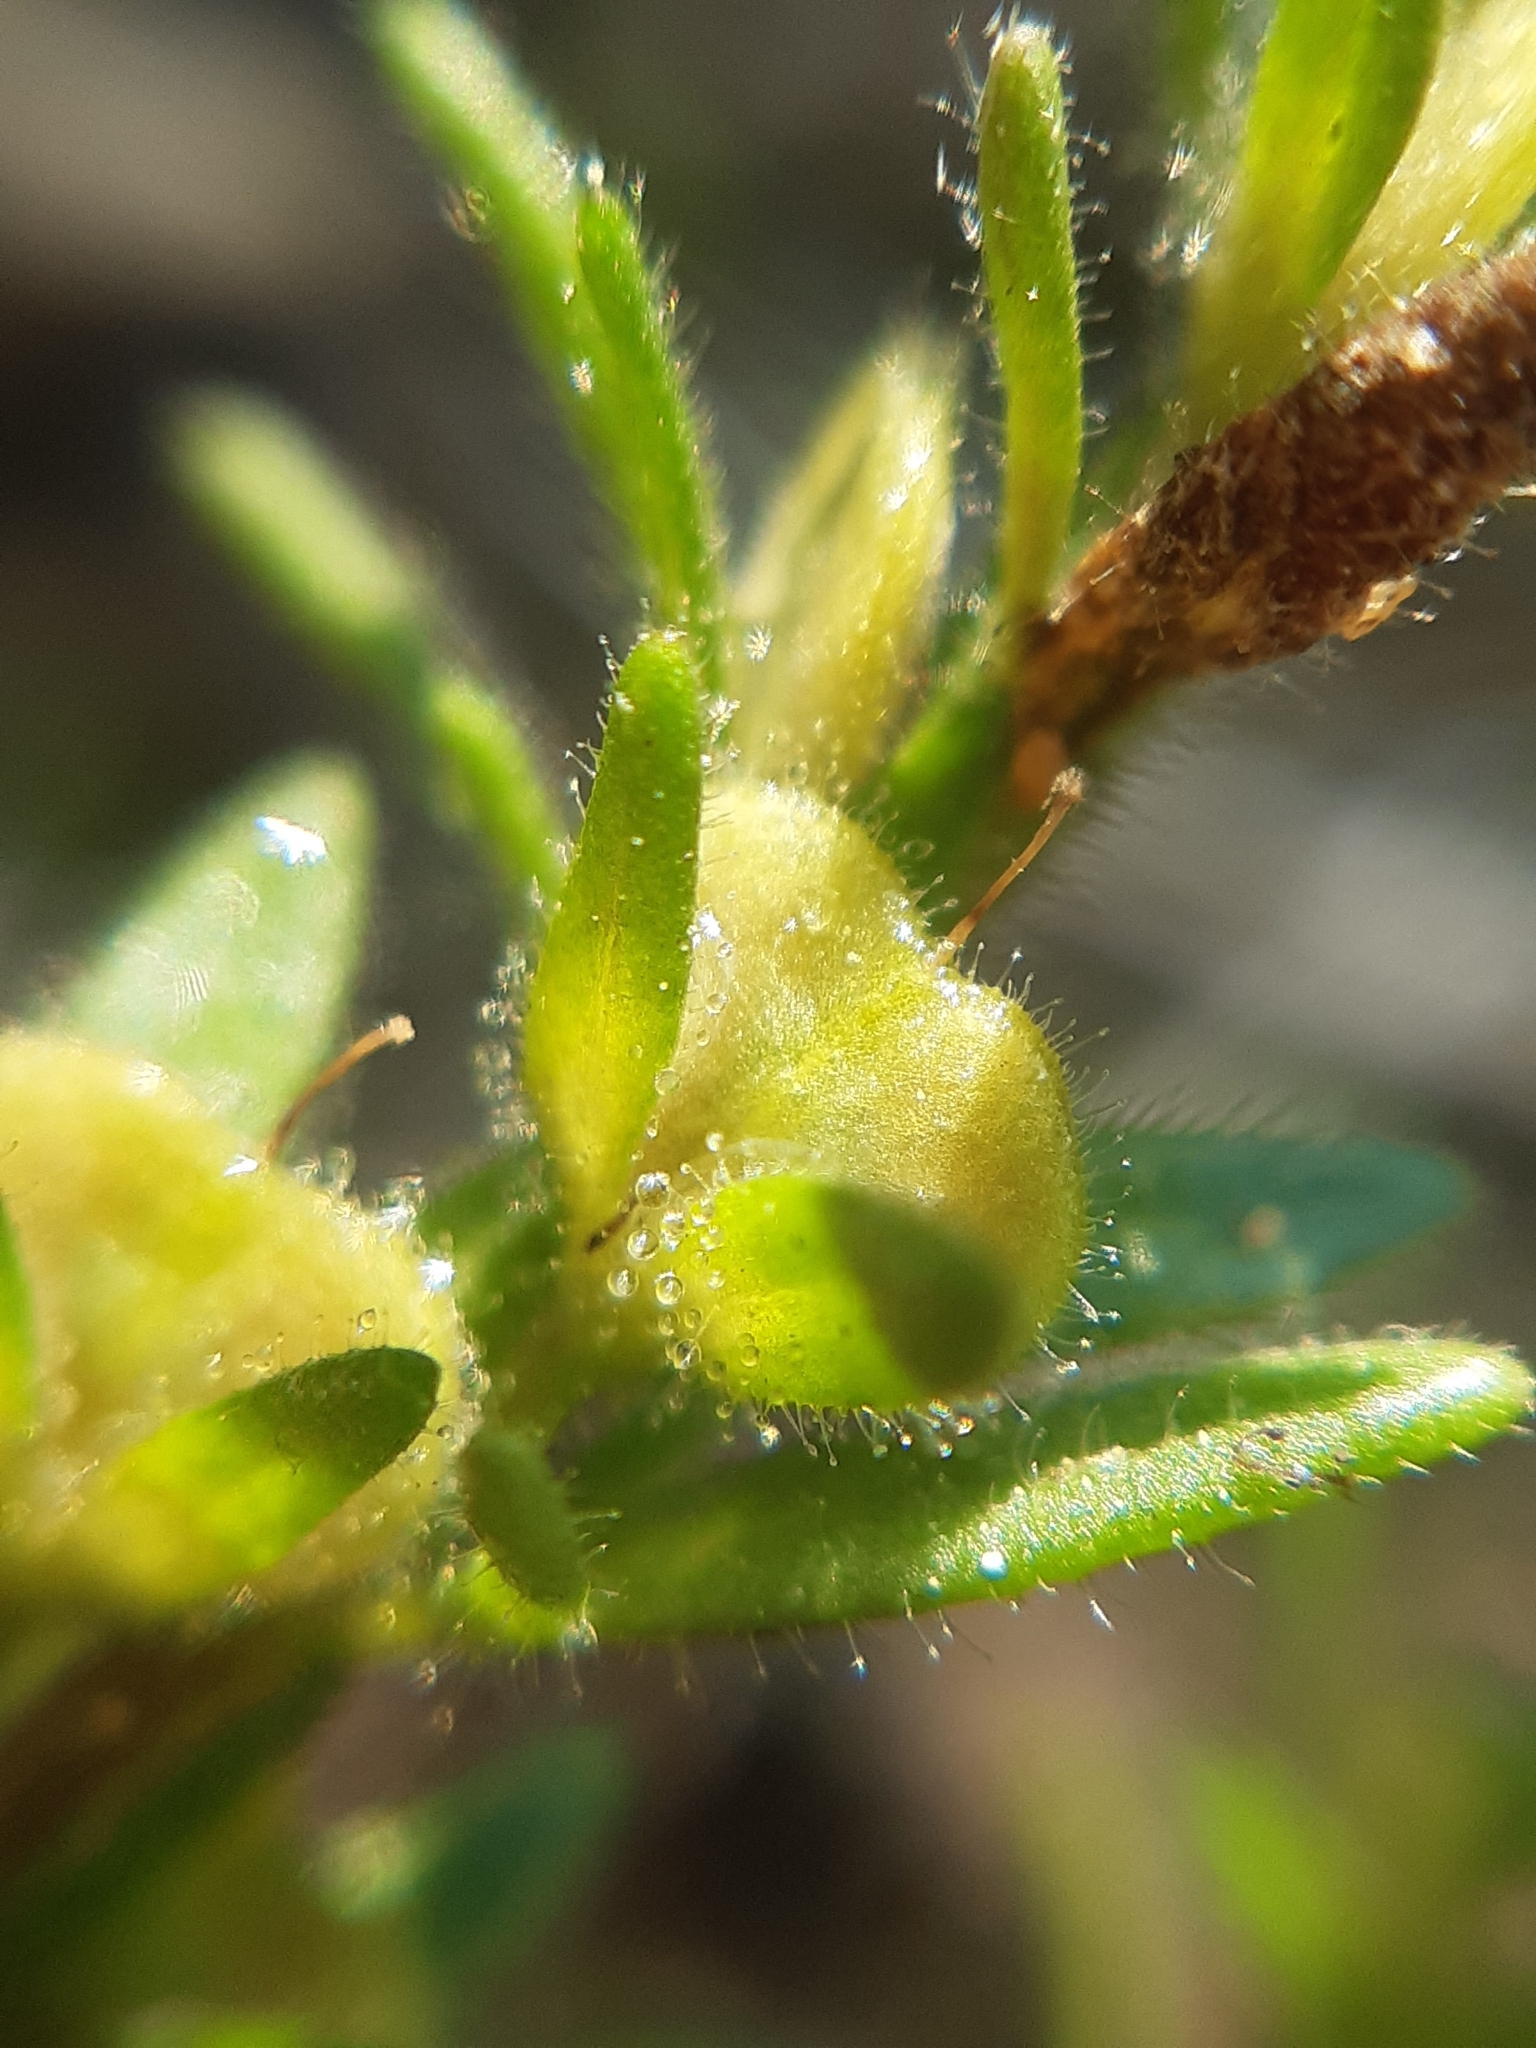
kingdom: Plantae
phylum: Tracheophyta
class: Magnoliopsida
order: Lamiales
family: Plantaginaceae
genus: Veronica
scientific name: Veronica dillenii
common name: Dillenius' speedwell
